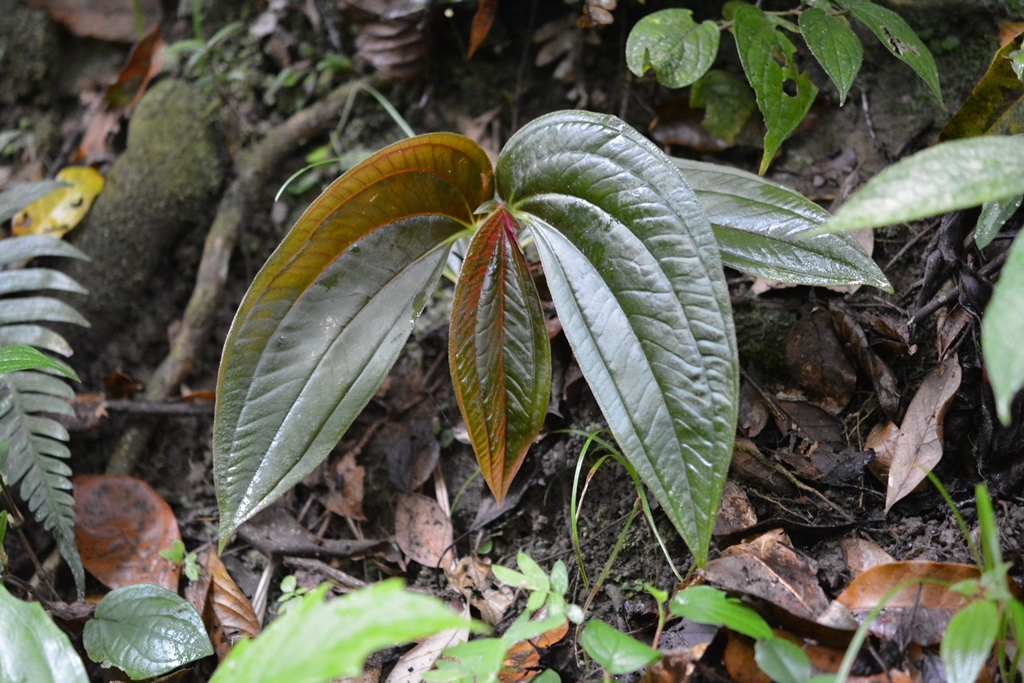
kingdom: Plantae
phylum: Tracheophyta
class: Magnoliopsida
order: Myrtales
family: Melastomataceae
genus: Centradenia
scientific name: Centradenia grandifolia
